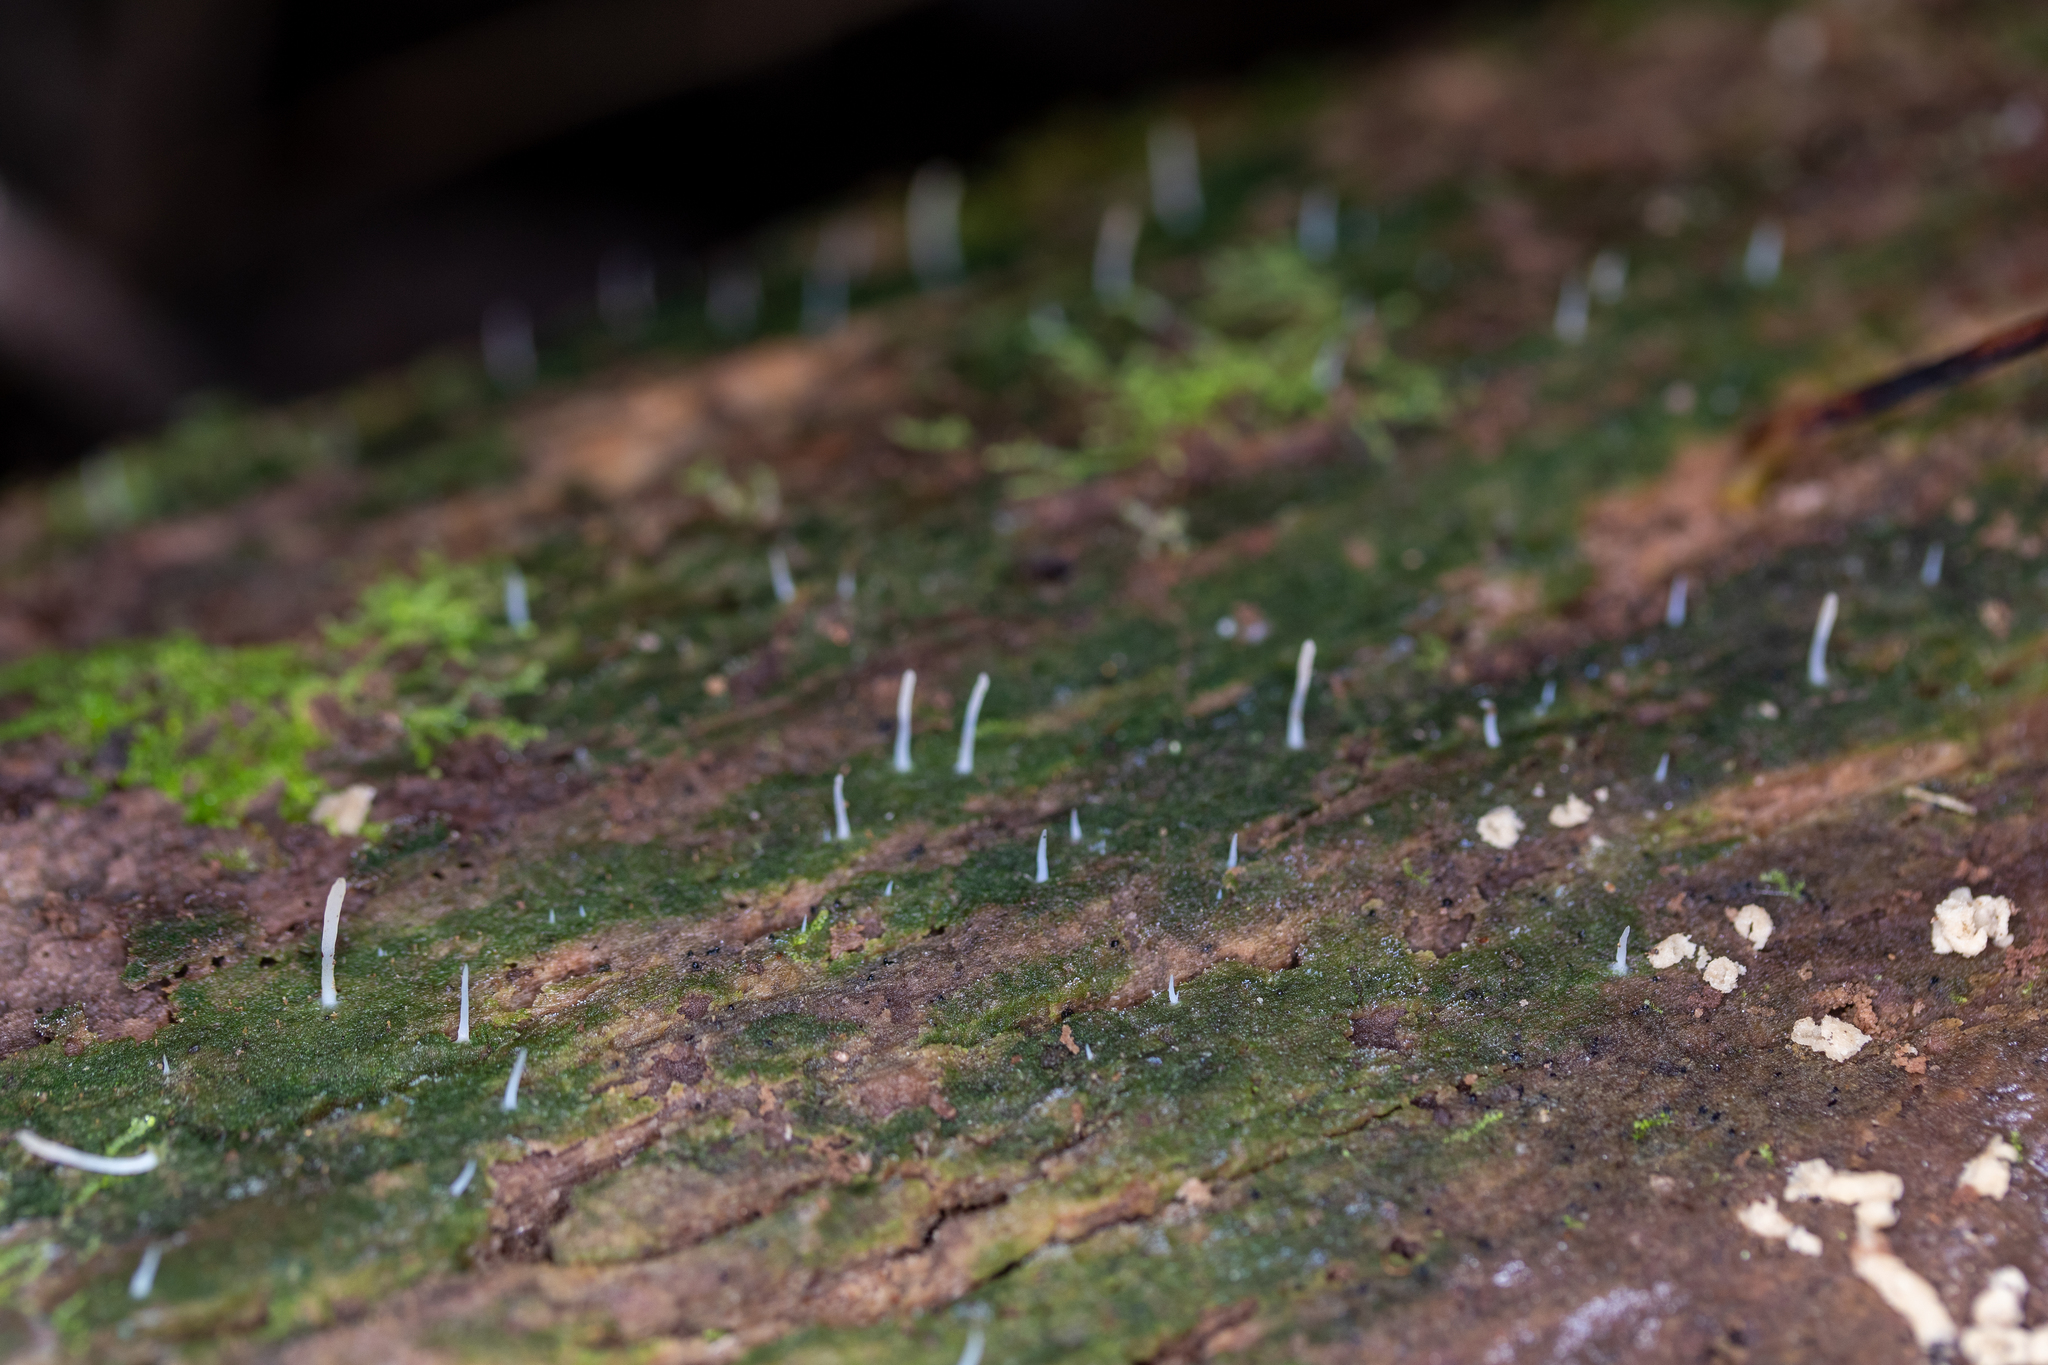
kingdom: Fungi
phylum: Basidiomycota
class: Agaricomycetes
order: Cantharellales
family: Hydnaceae
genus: Multiclavula
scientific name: Multiclavula mucida
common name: White green-algae coral
